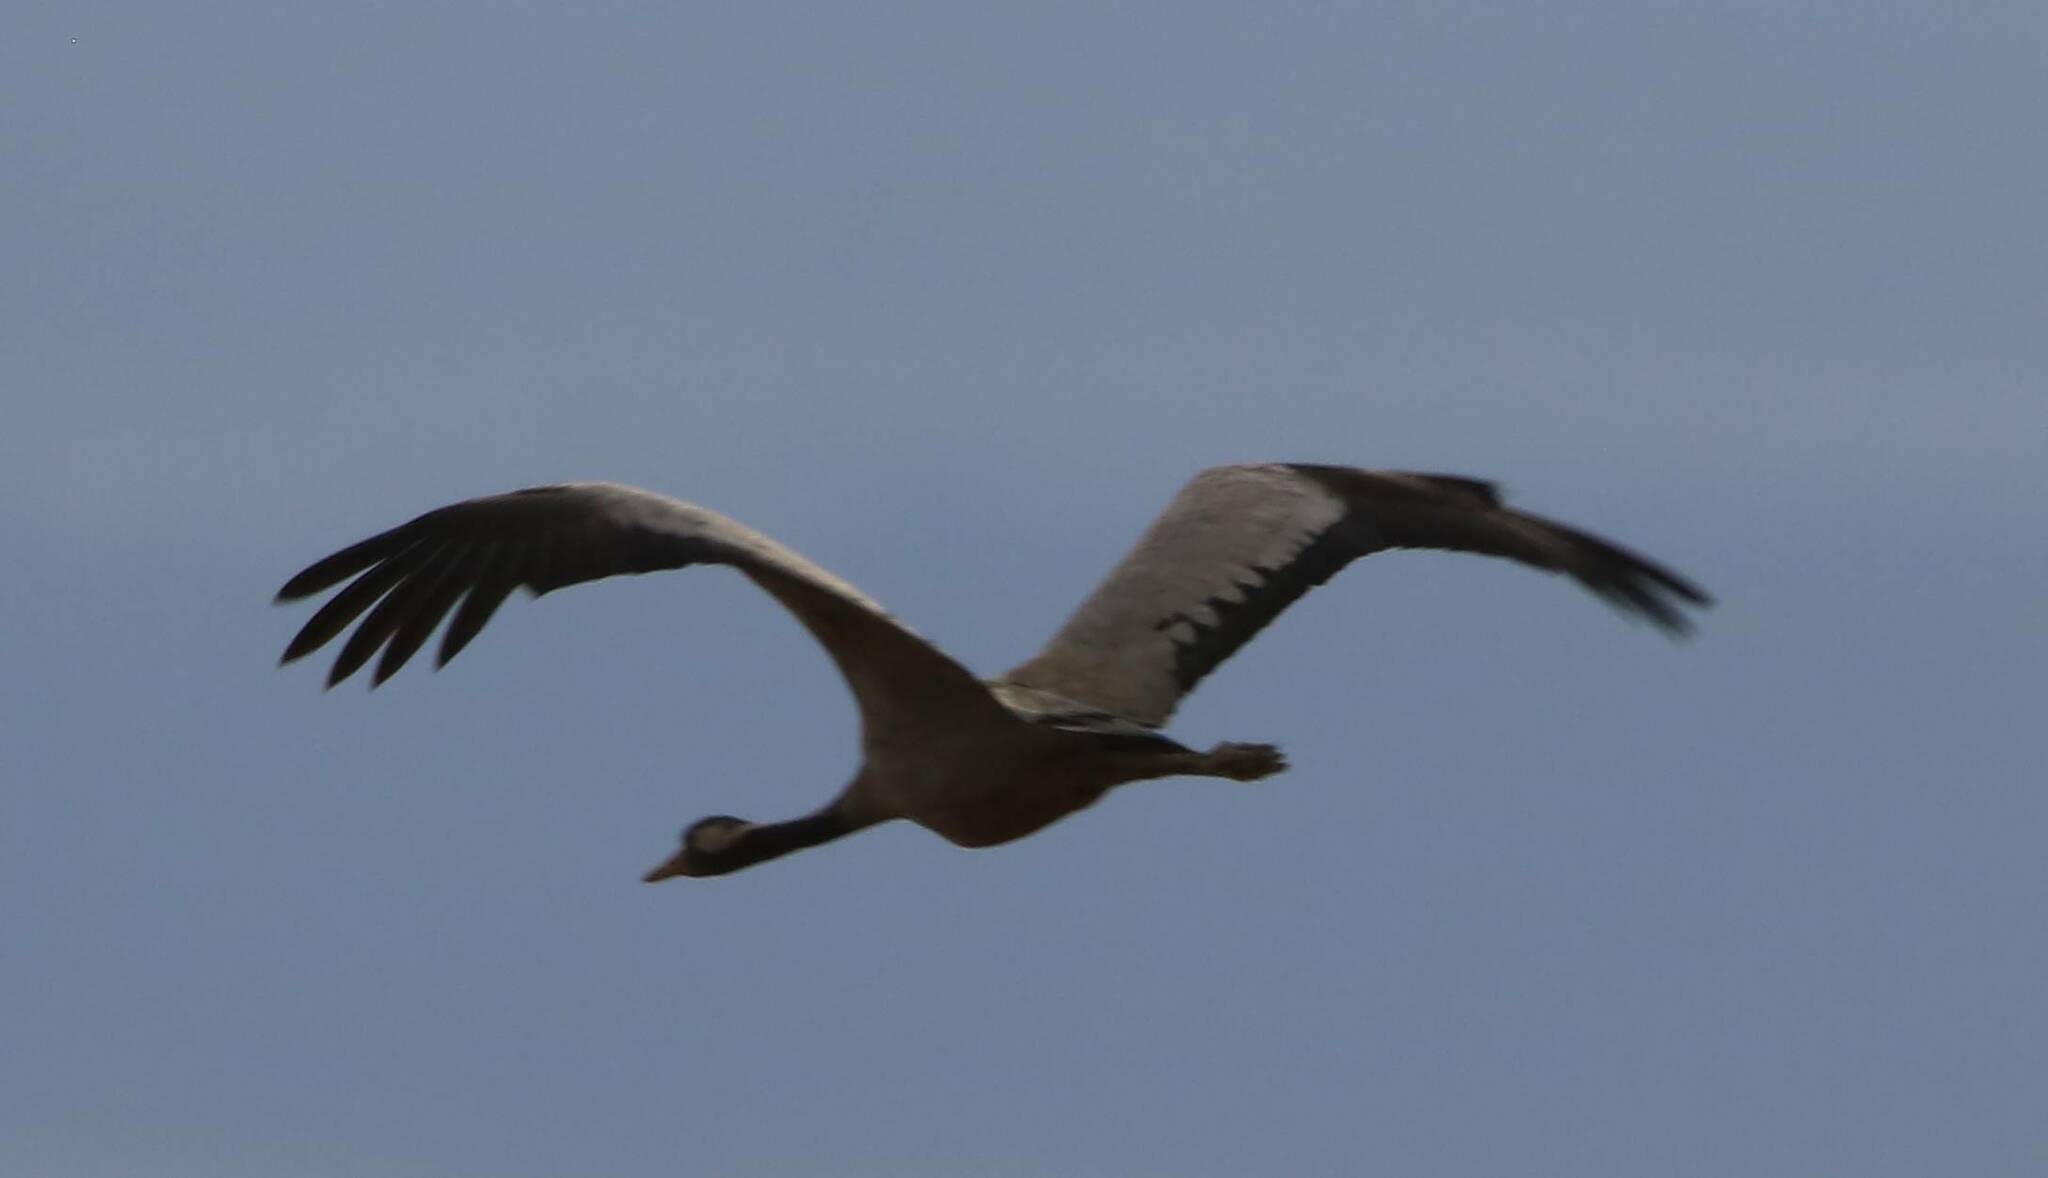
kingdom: Animalia
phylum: Chordata
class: Aves
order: Gruiformes
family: Gruidae
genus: Grus
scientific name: Grus grus
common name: Common crane
